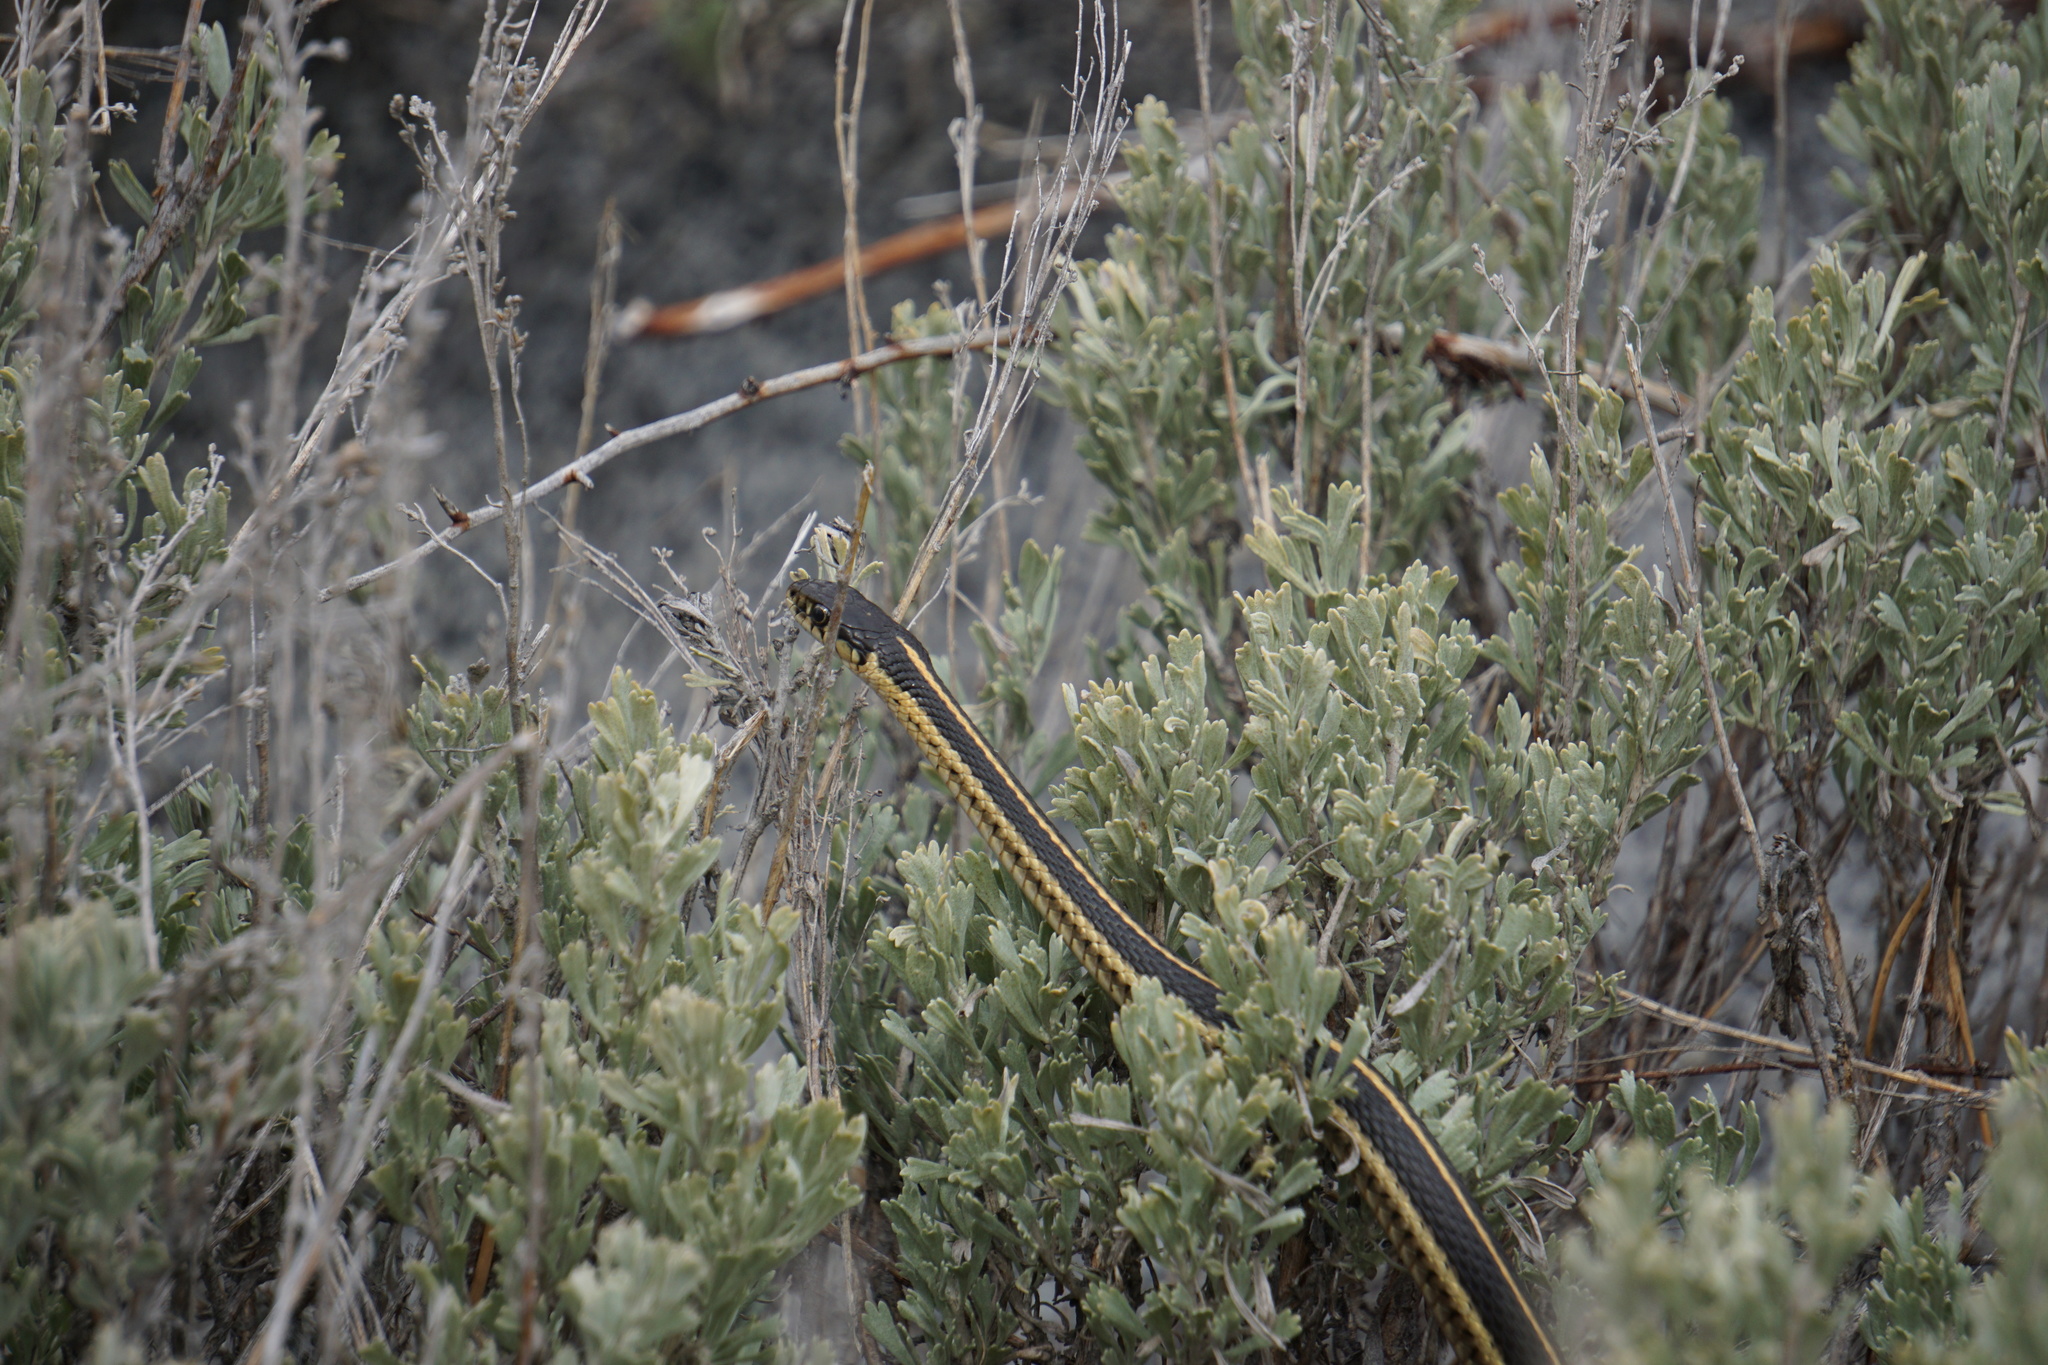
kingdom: Animalia
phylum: Chordata
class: Squamata
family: Colubridae
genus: Thamnophis
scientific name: Thamnophis elegans
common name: Western terrestrial garter snake
